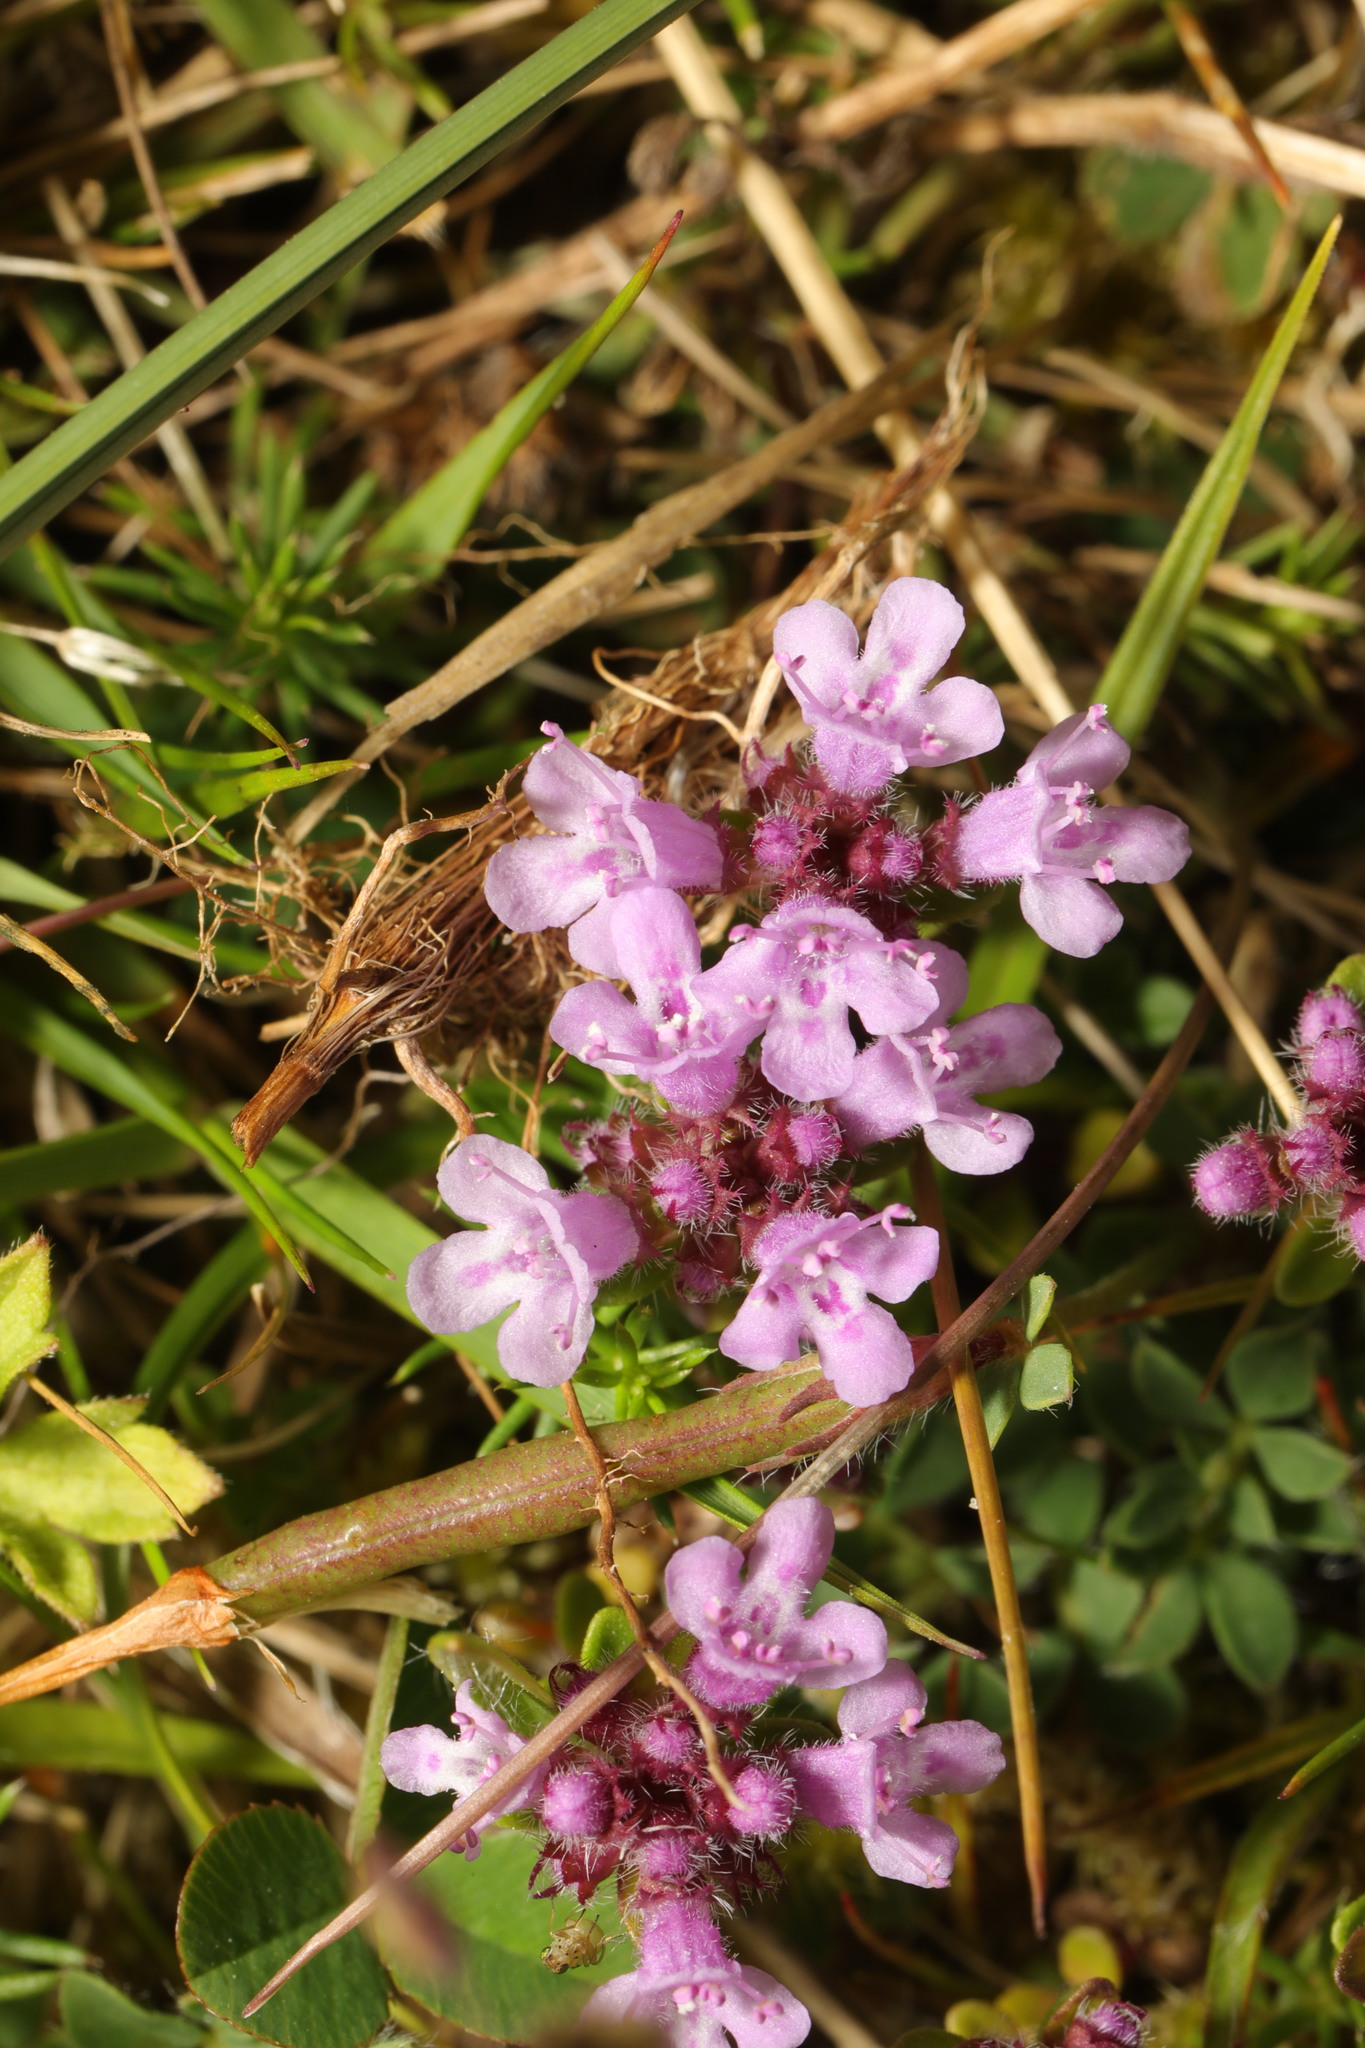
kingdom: Plantae
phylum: Tracheophyta
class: Magnoliopsida
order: Lamiales
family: Lamiaceae
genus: Thymus
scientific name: Thymus praecox
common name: Wild thyme
